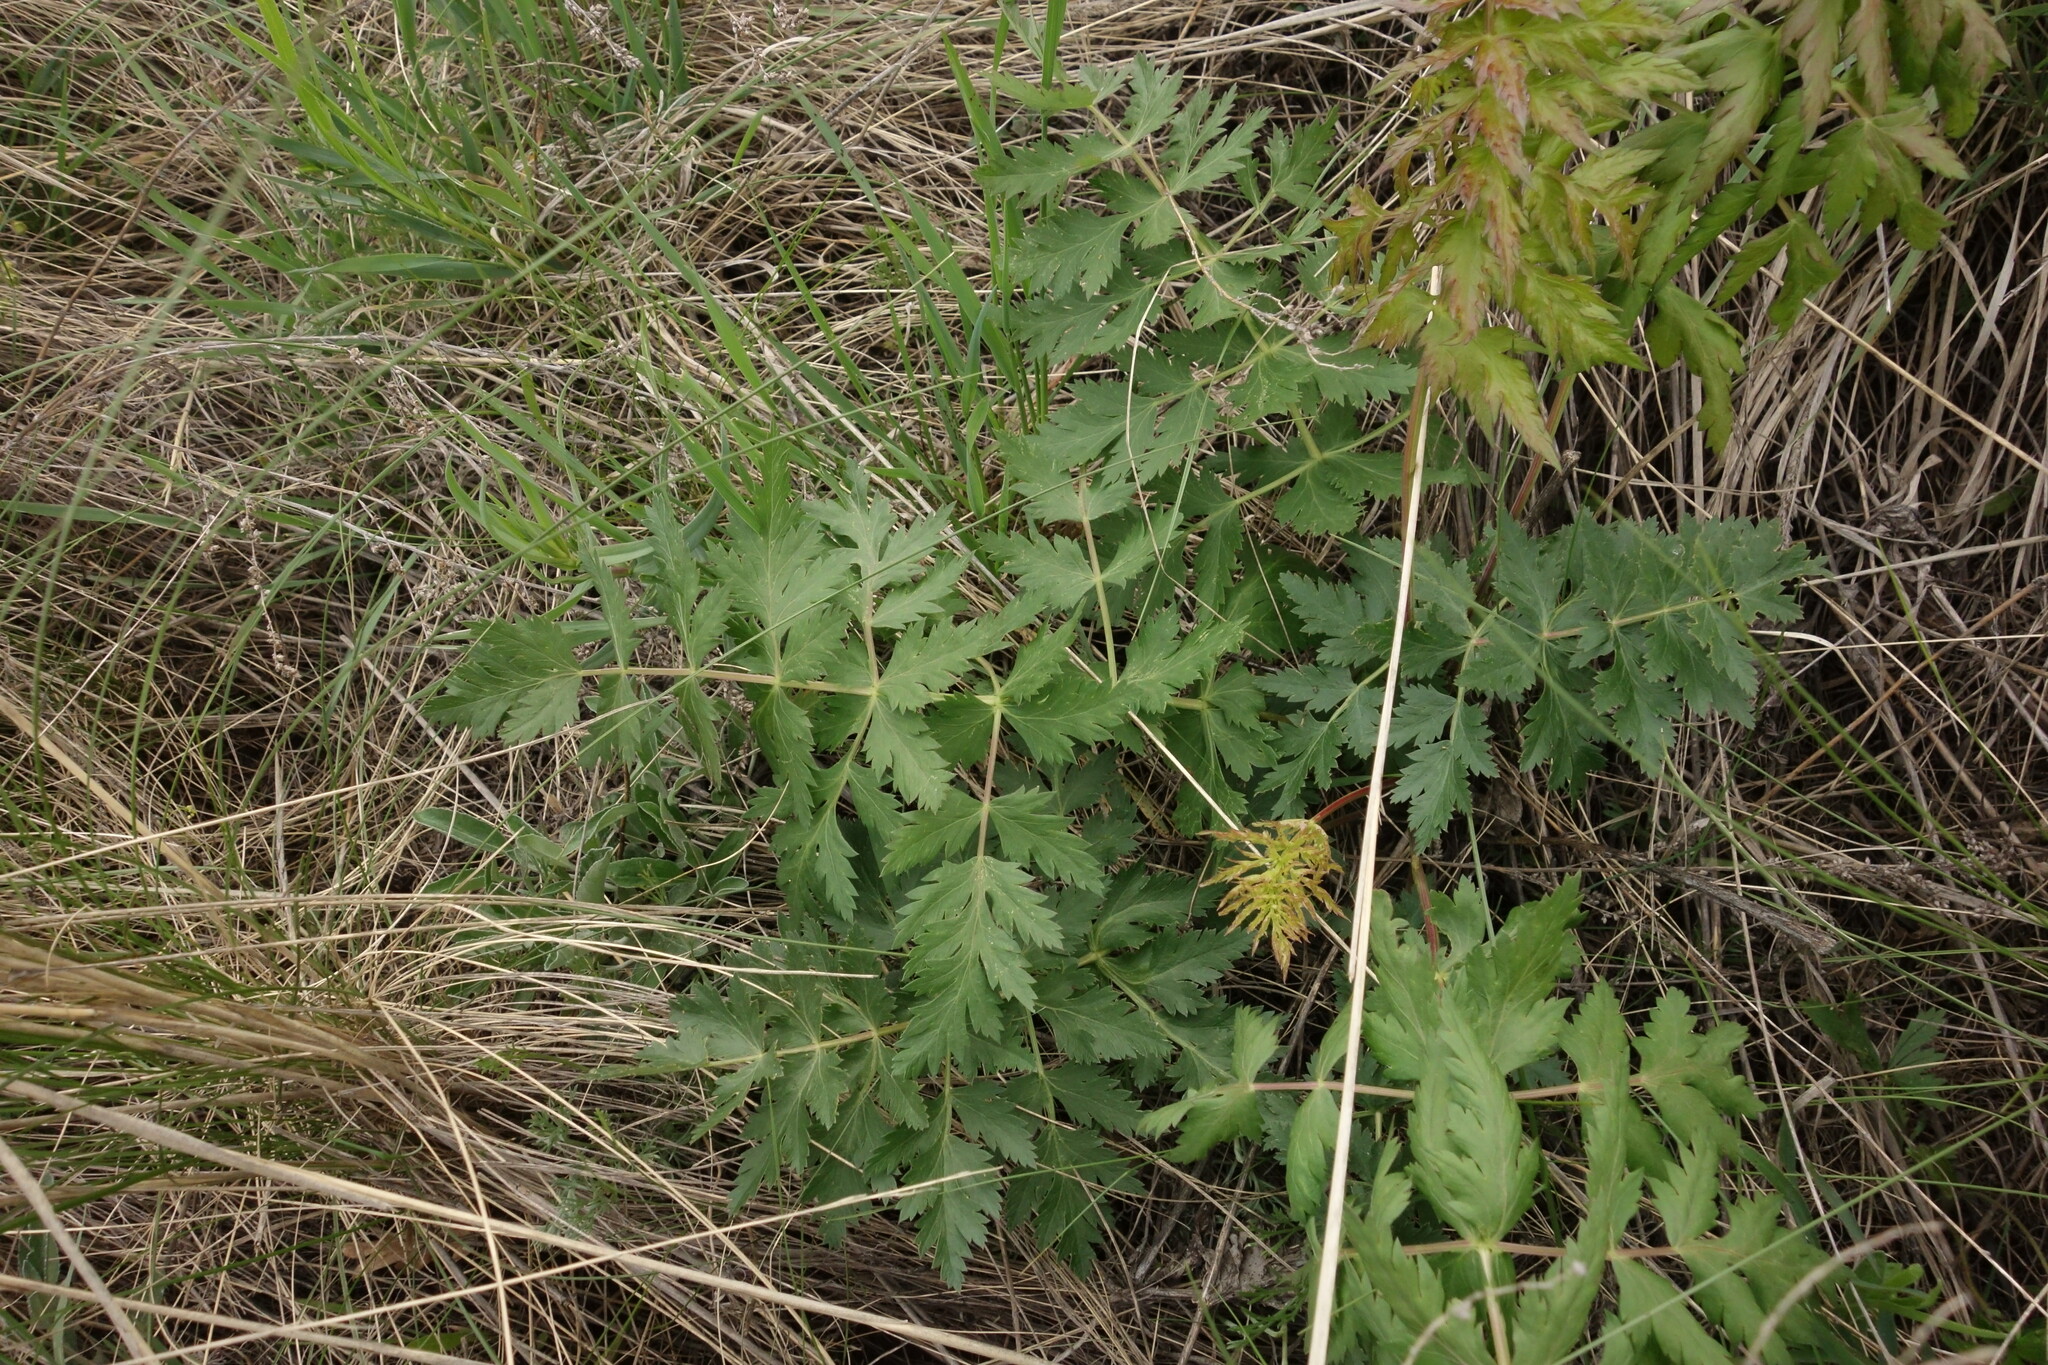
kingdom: Plantae
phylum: Tracheophyta
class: Magnoliopsida
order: Apiales
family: Apiaceae
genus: Seseli
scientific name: Seseli libanotis
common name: Mooncarrot
